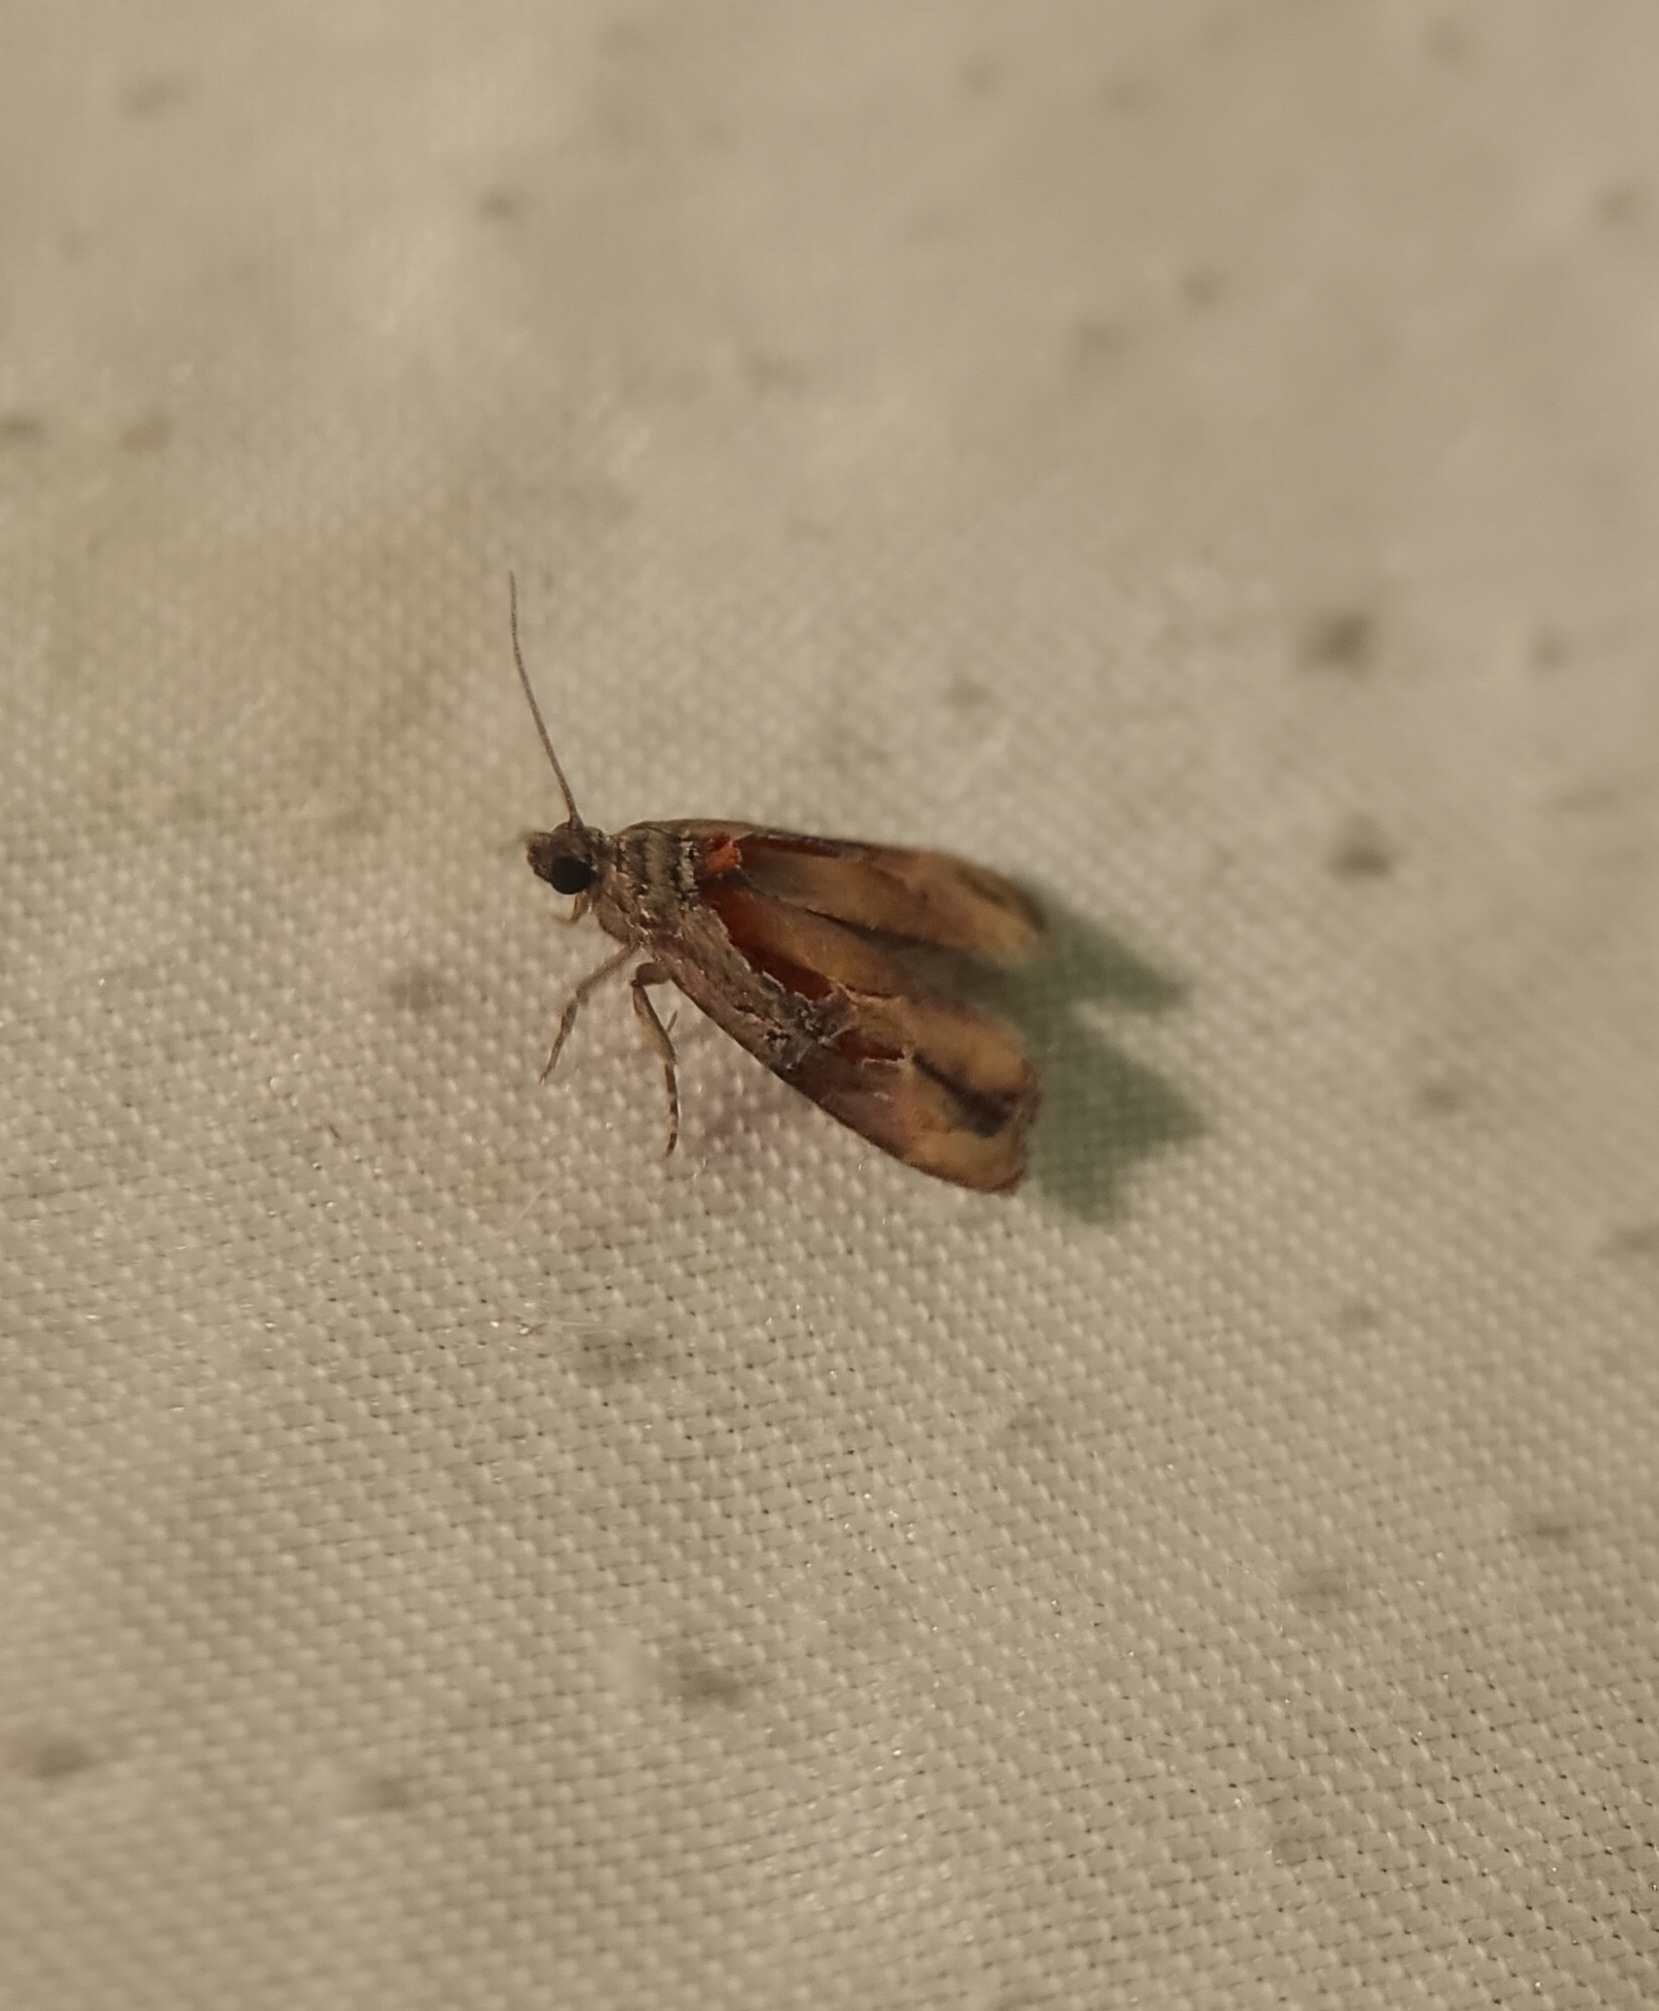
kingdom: Animalia
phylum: Arthropoda
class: Insecta
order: Lepidoptera
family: Tortricidae
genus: Zomaria
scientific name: Zomaria interruptolineana
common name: Broken-lined zomaria moth
